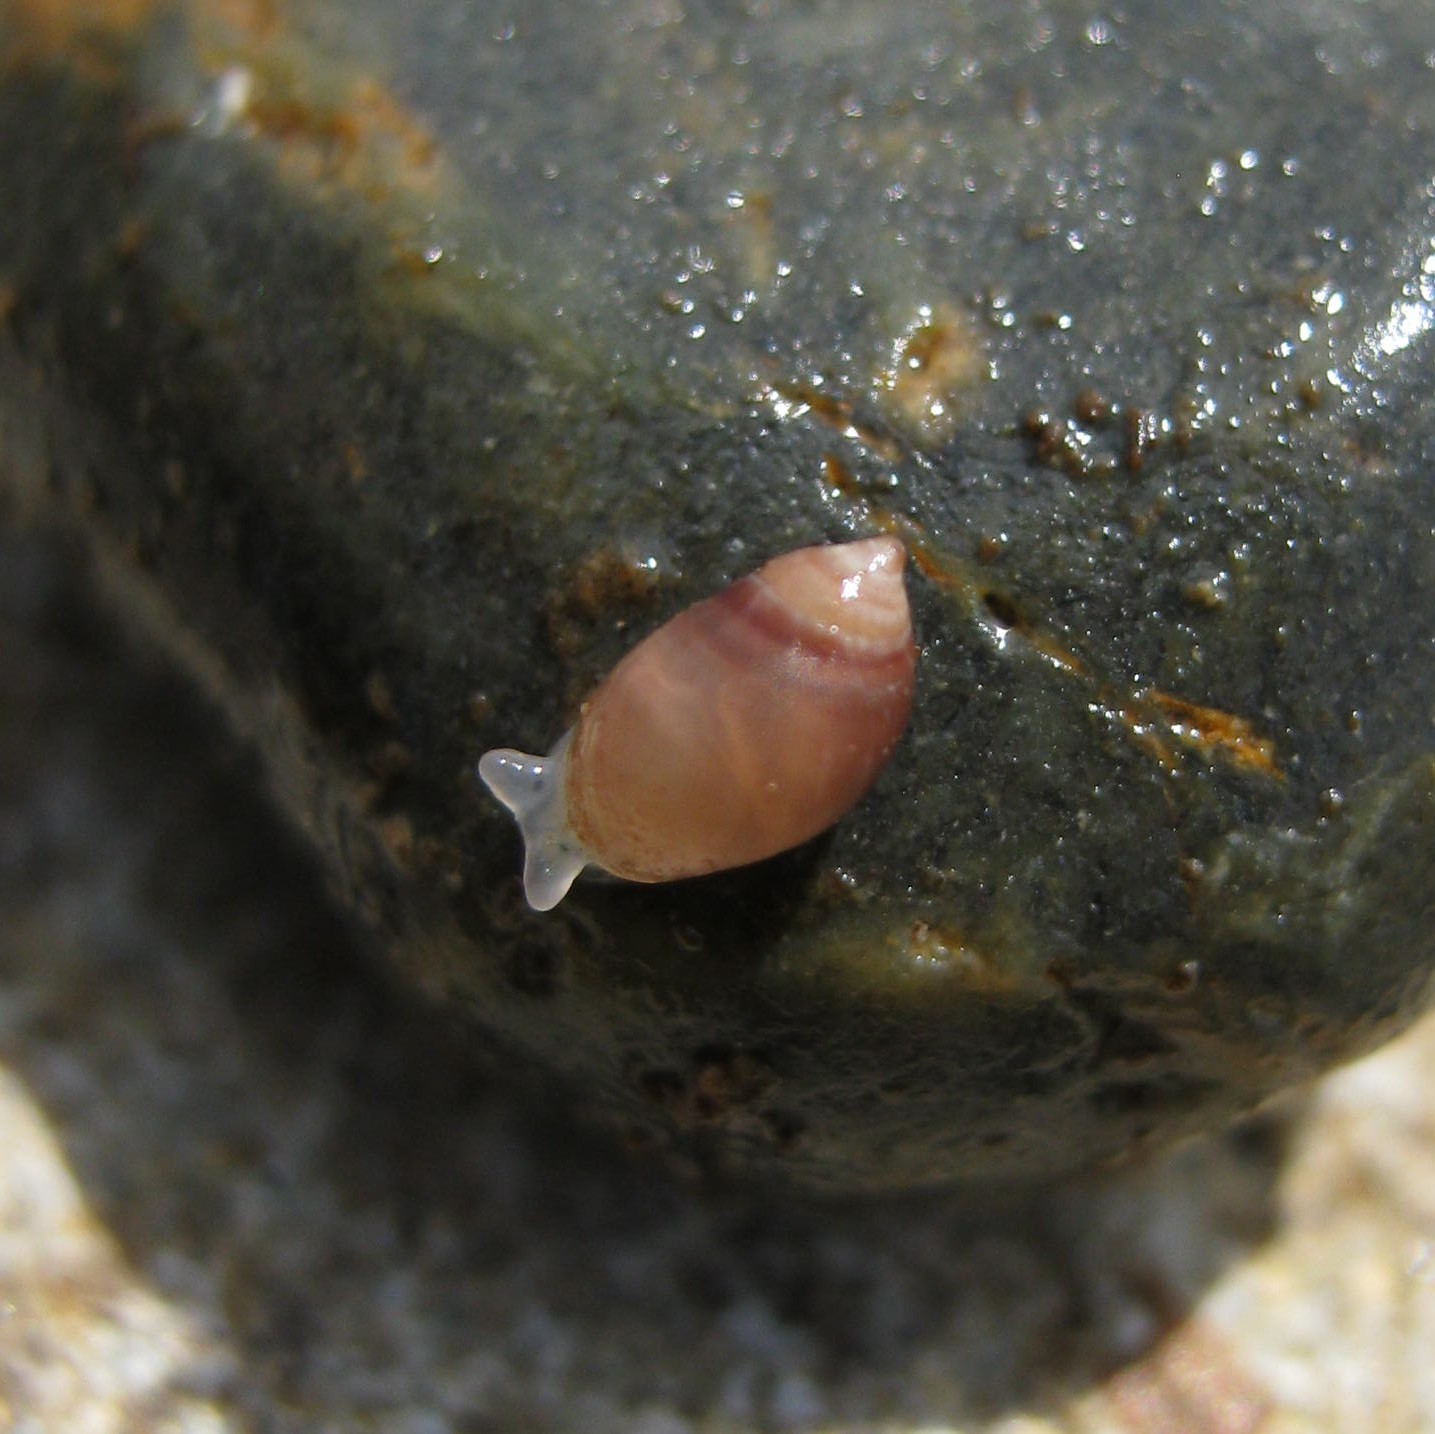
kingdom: Animalia
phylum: Mollusca
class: Gastropoda
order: Ellobiida
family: Ellobiidae
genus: Marinula
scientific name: Marinula filholi
